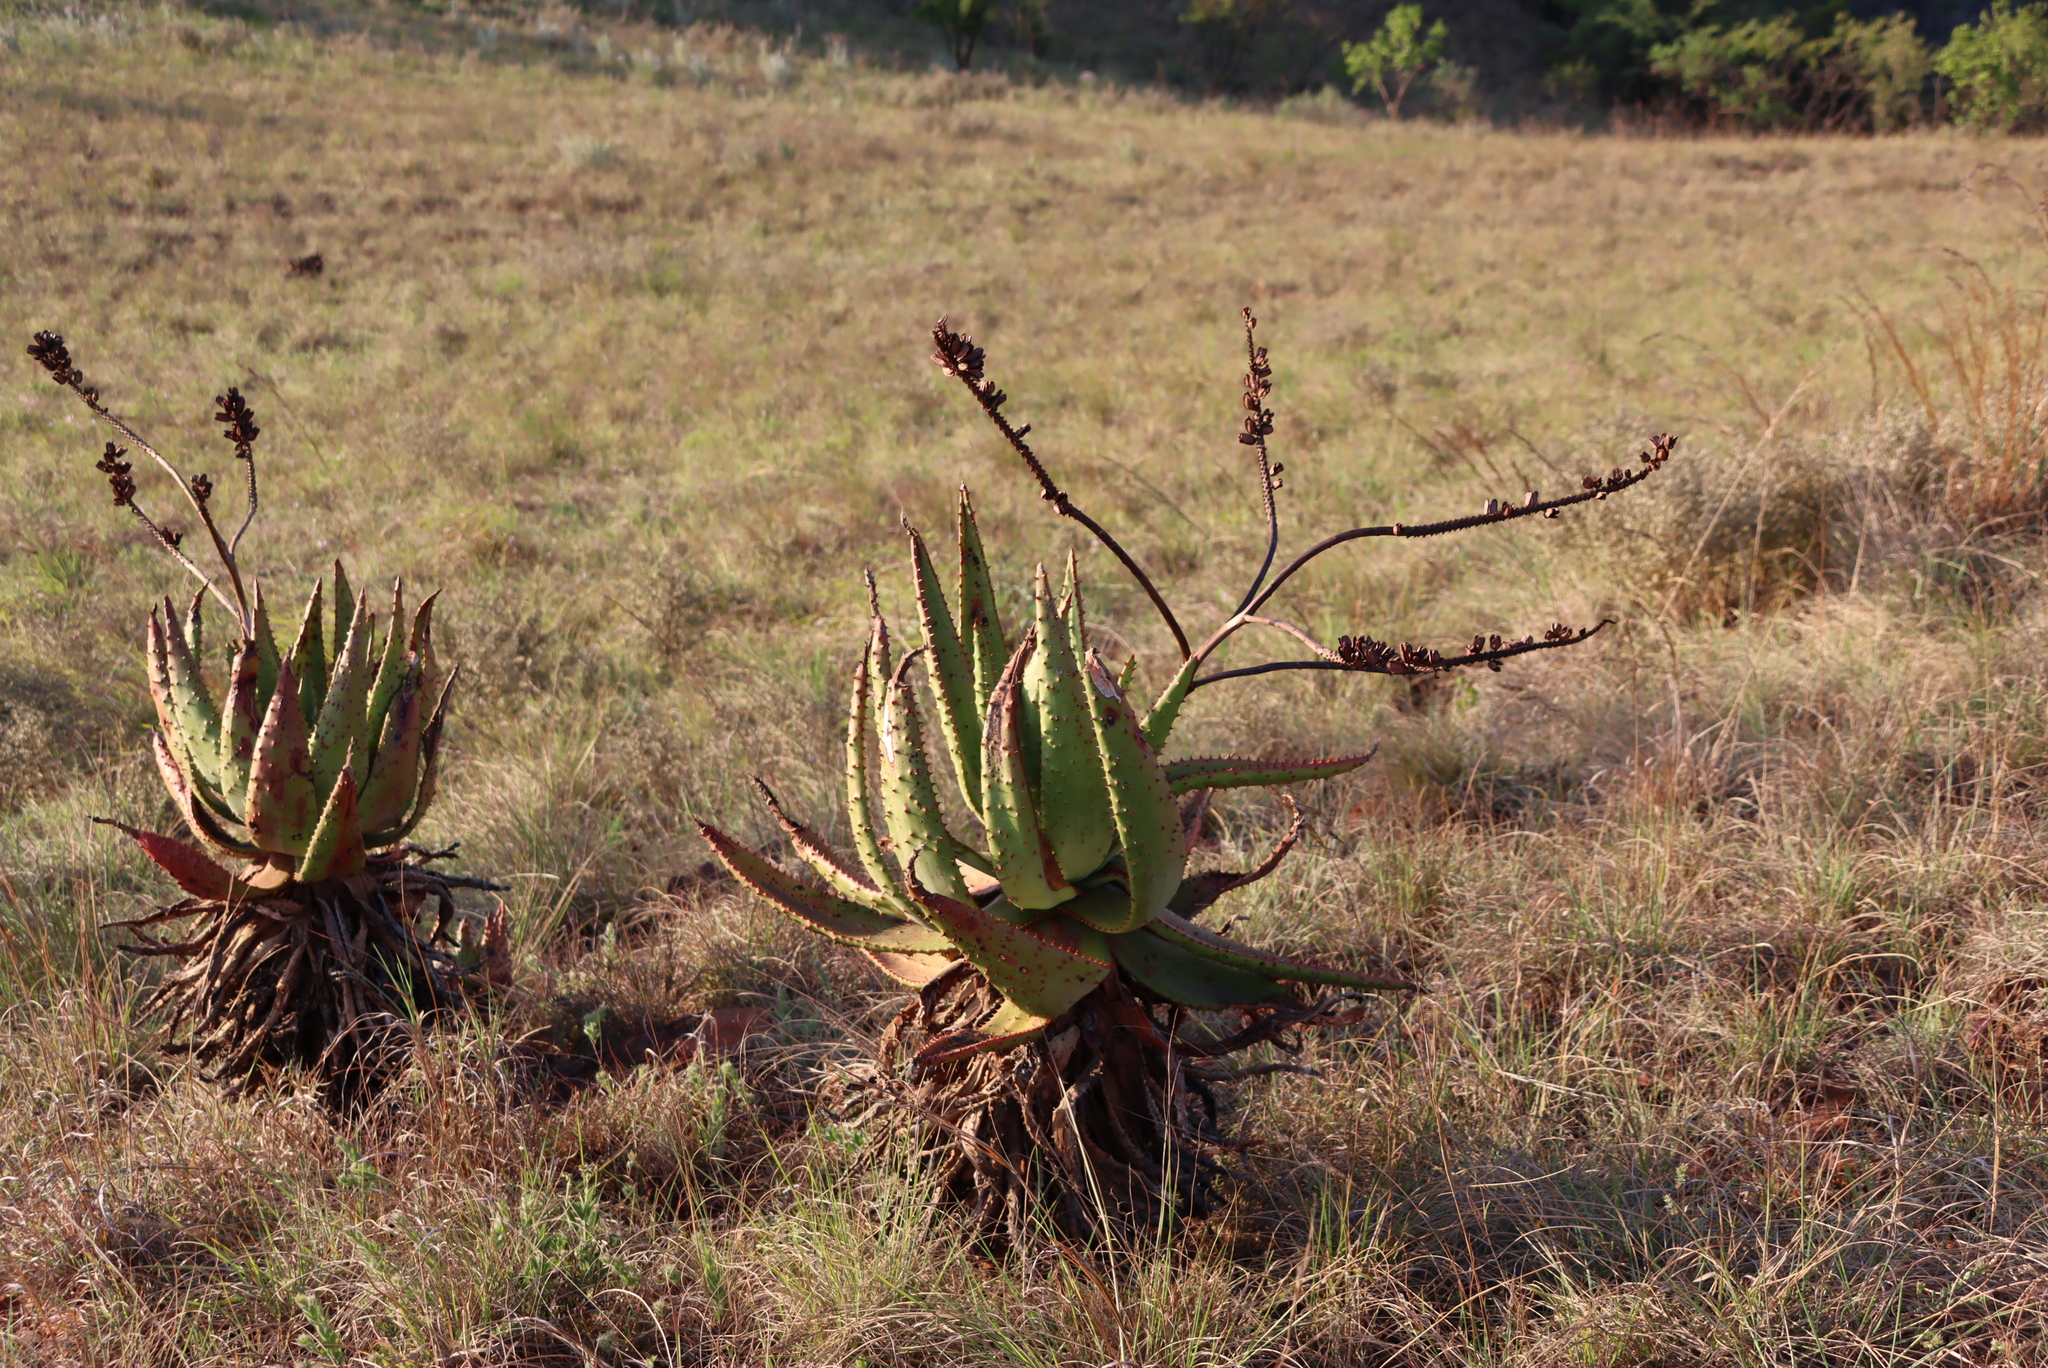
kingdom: Plantae
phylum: Tracheophyta
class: Liliopsida
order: Asparagales
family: Asphodelaceae
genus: Aloe
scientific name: Aloe marlothii
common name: Flat-flowered aloe
